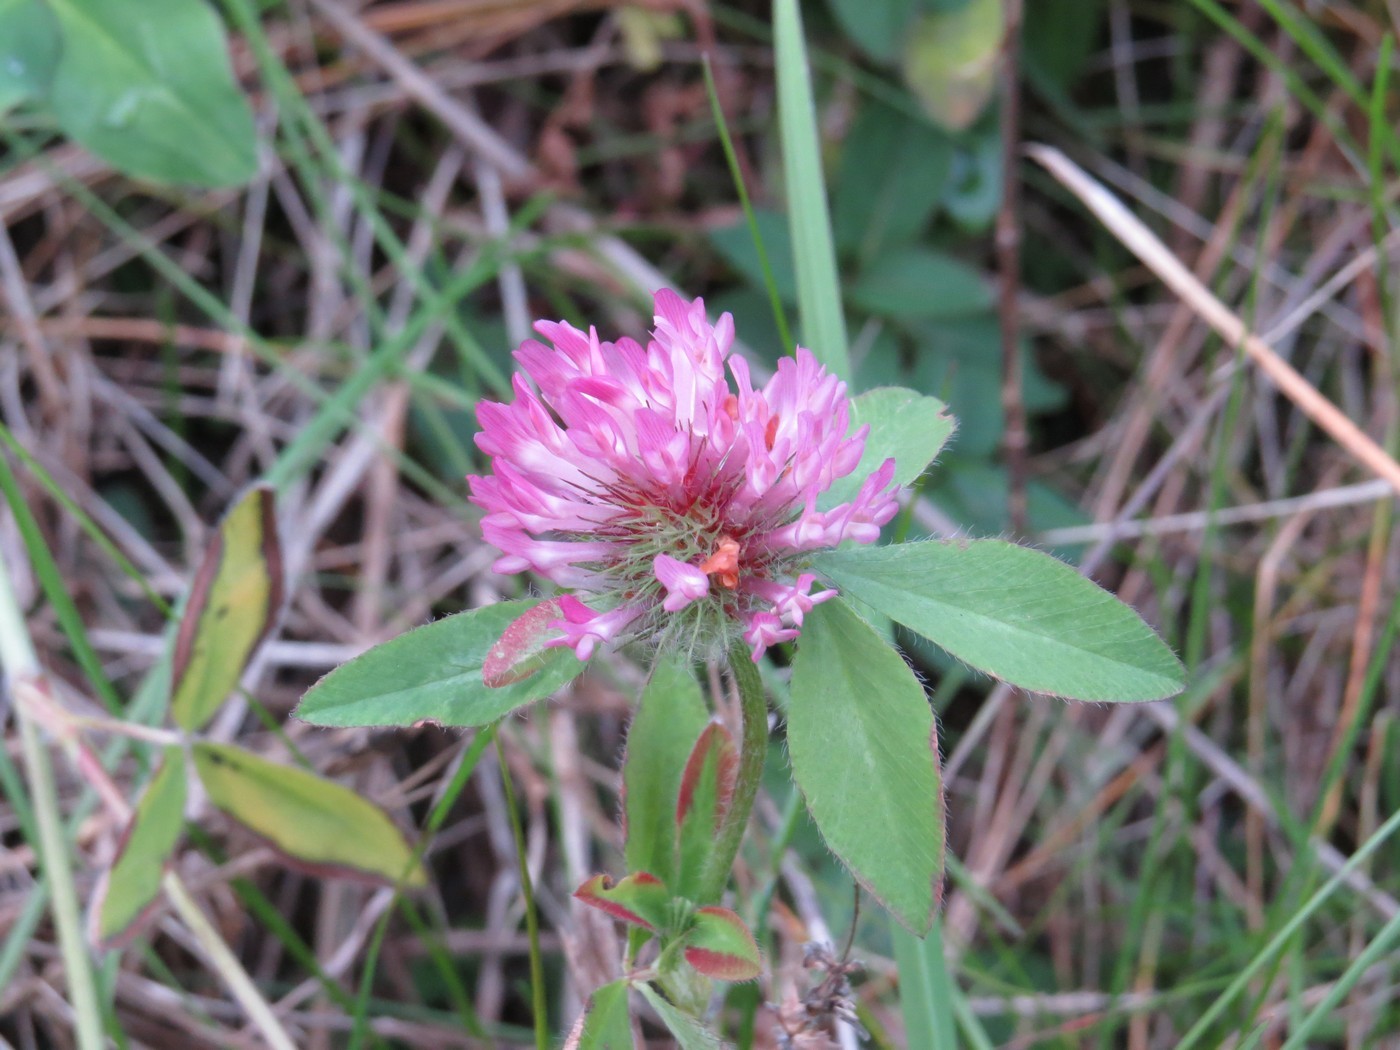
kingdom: Plantae
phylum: Tracheophyta
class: Magnoliopsida
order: Fabales
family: Fabaceae
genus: Trifolium
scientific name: Trifolium pratense
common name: Red clover
